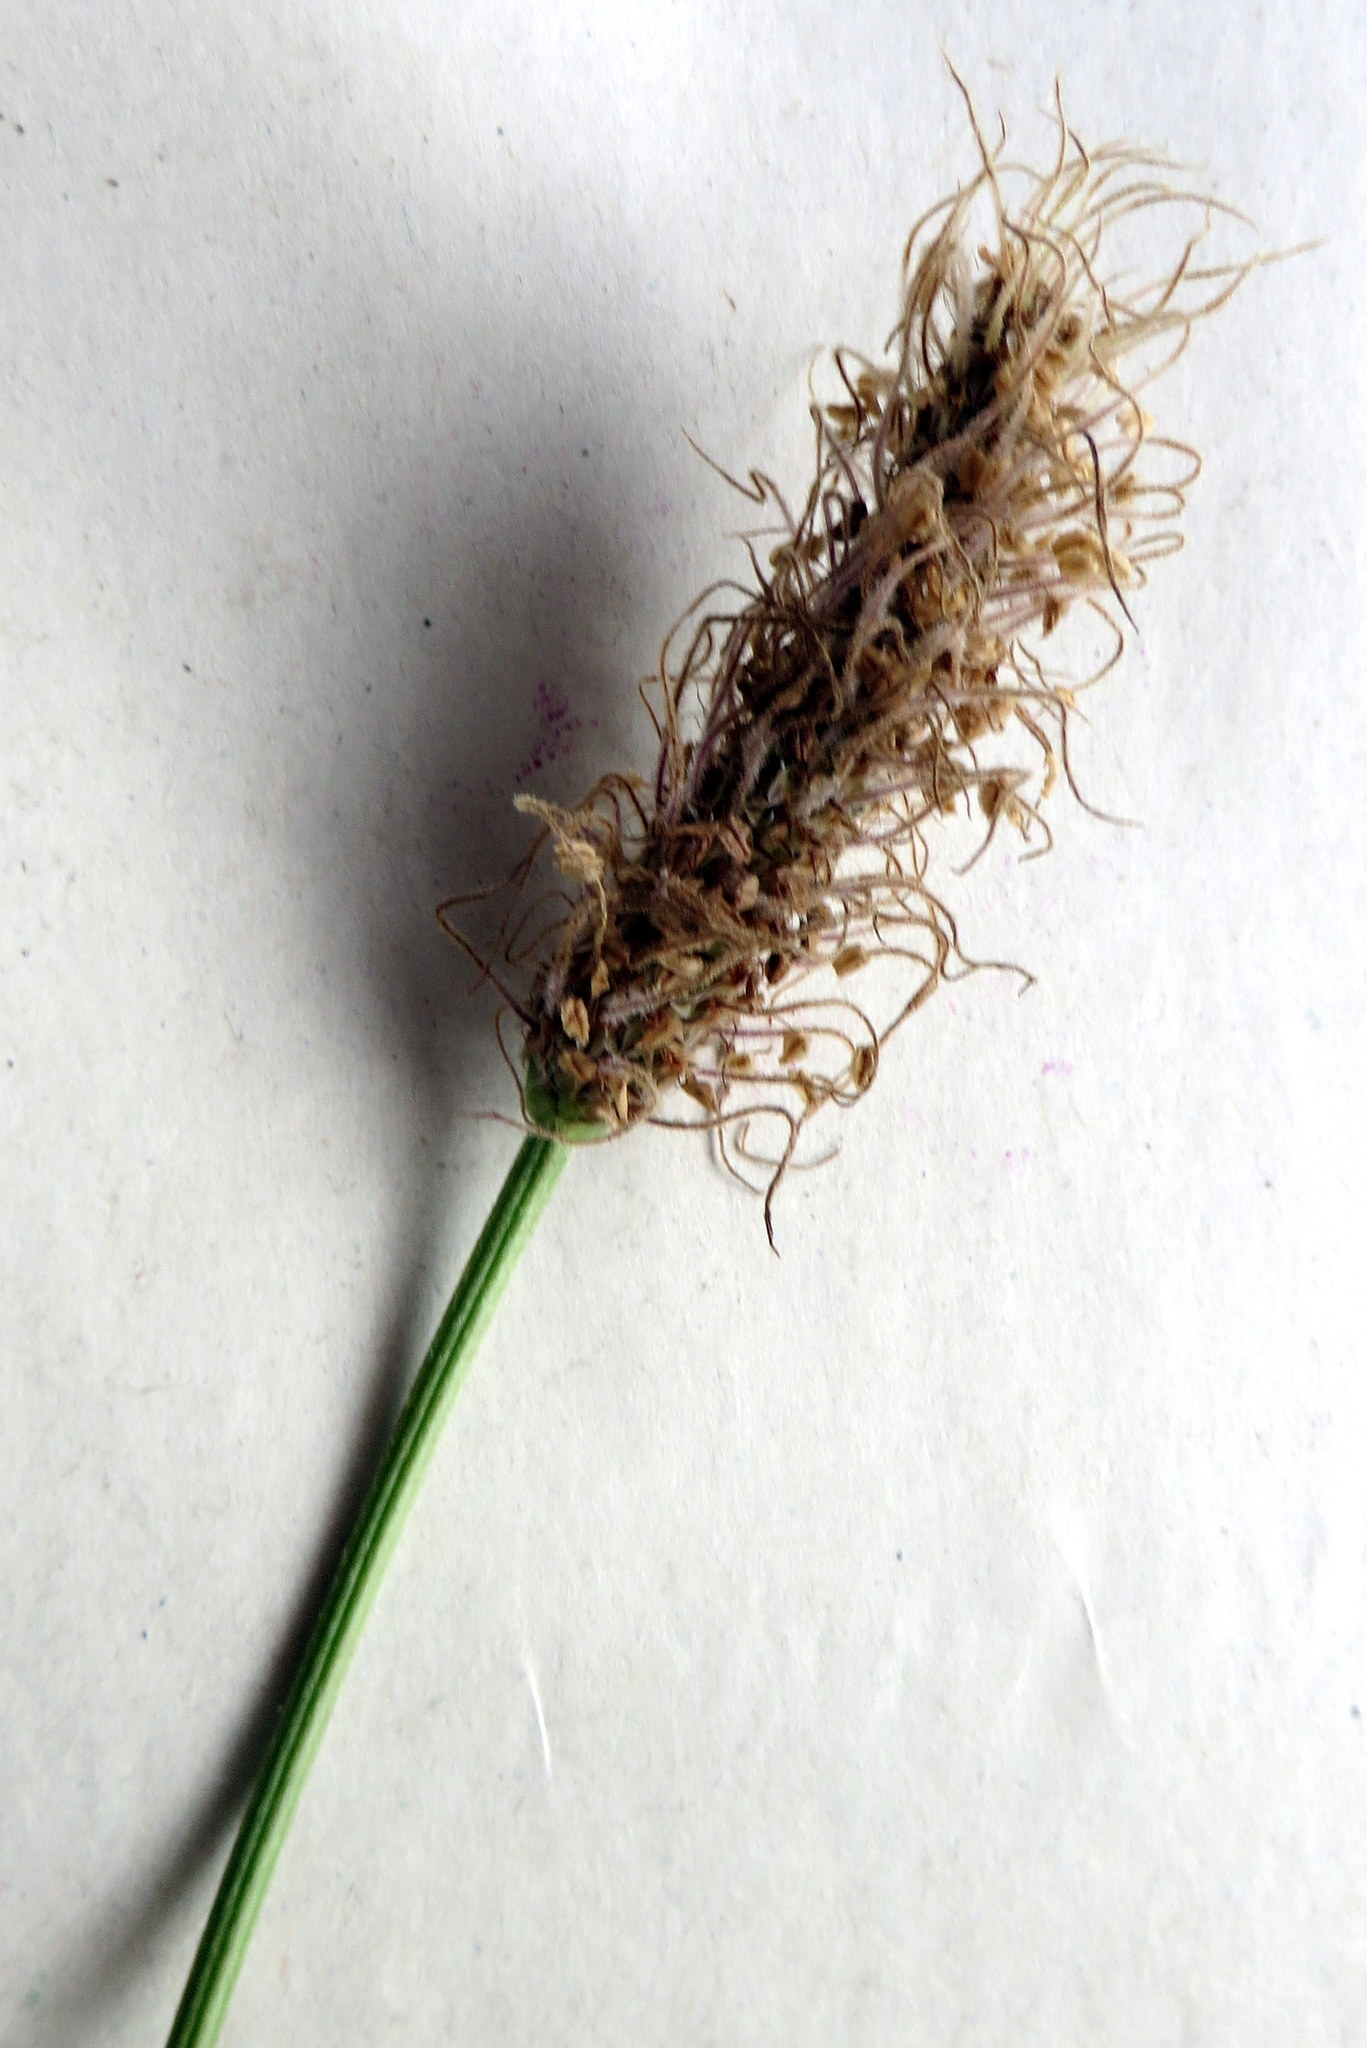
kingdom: Plantae
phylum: Tracheophyta
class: Magnoliopsida
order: Lamiales
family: Plantaginaceae
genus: Plantago
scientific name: Plantago lanceolata
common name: Ribwort plantain
